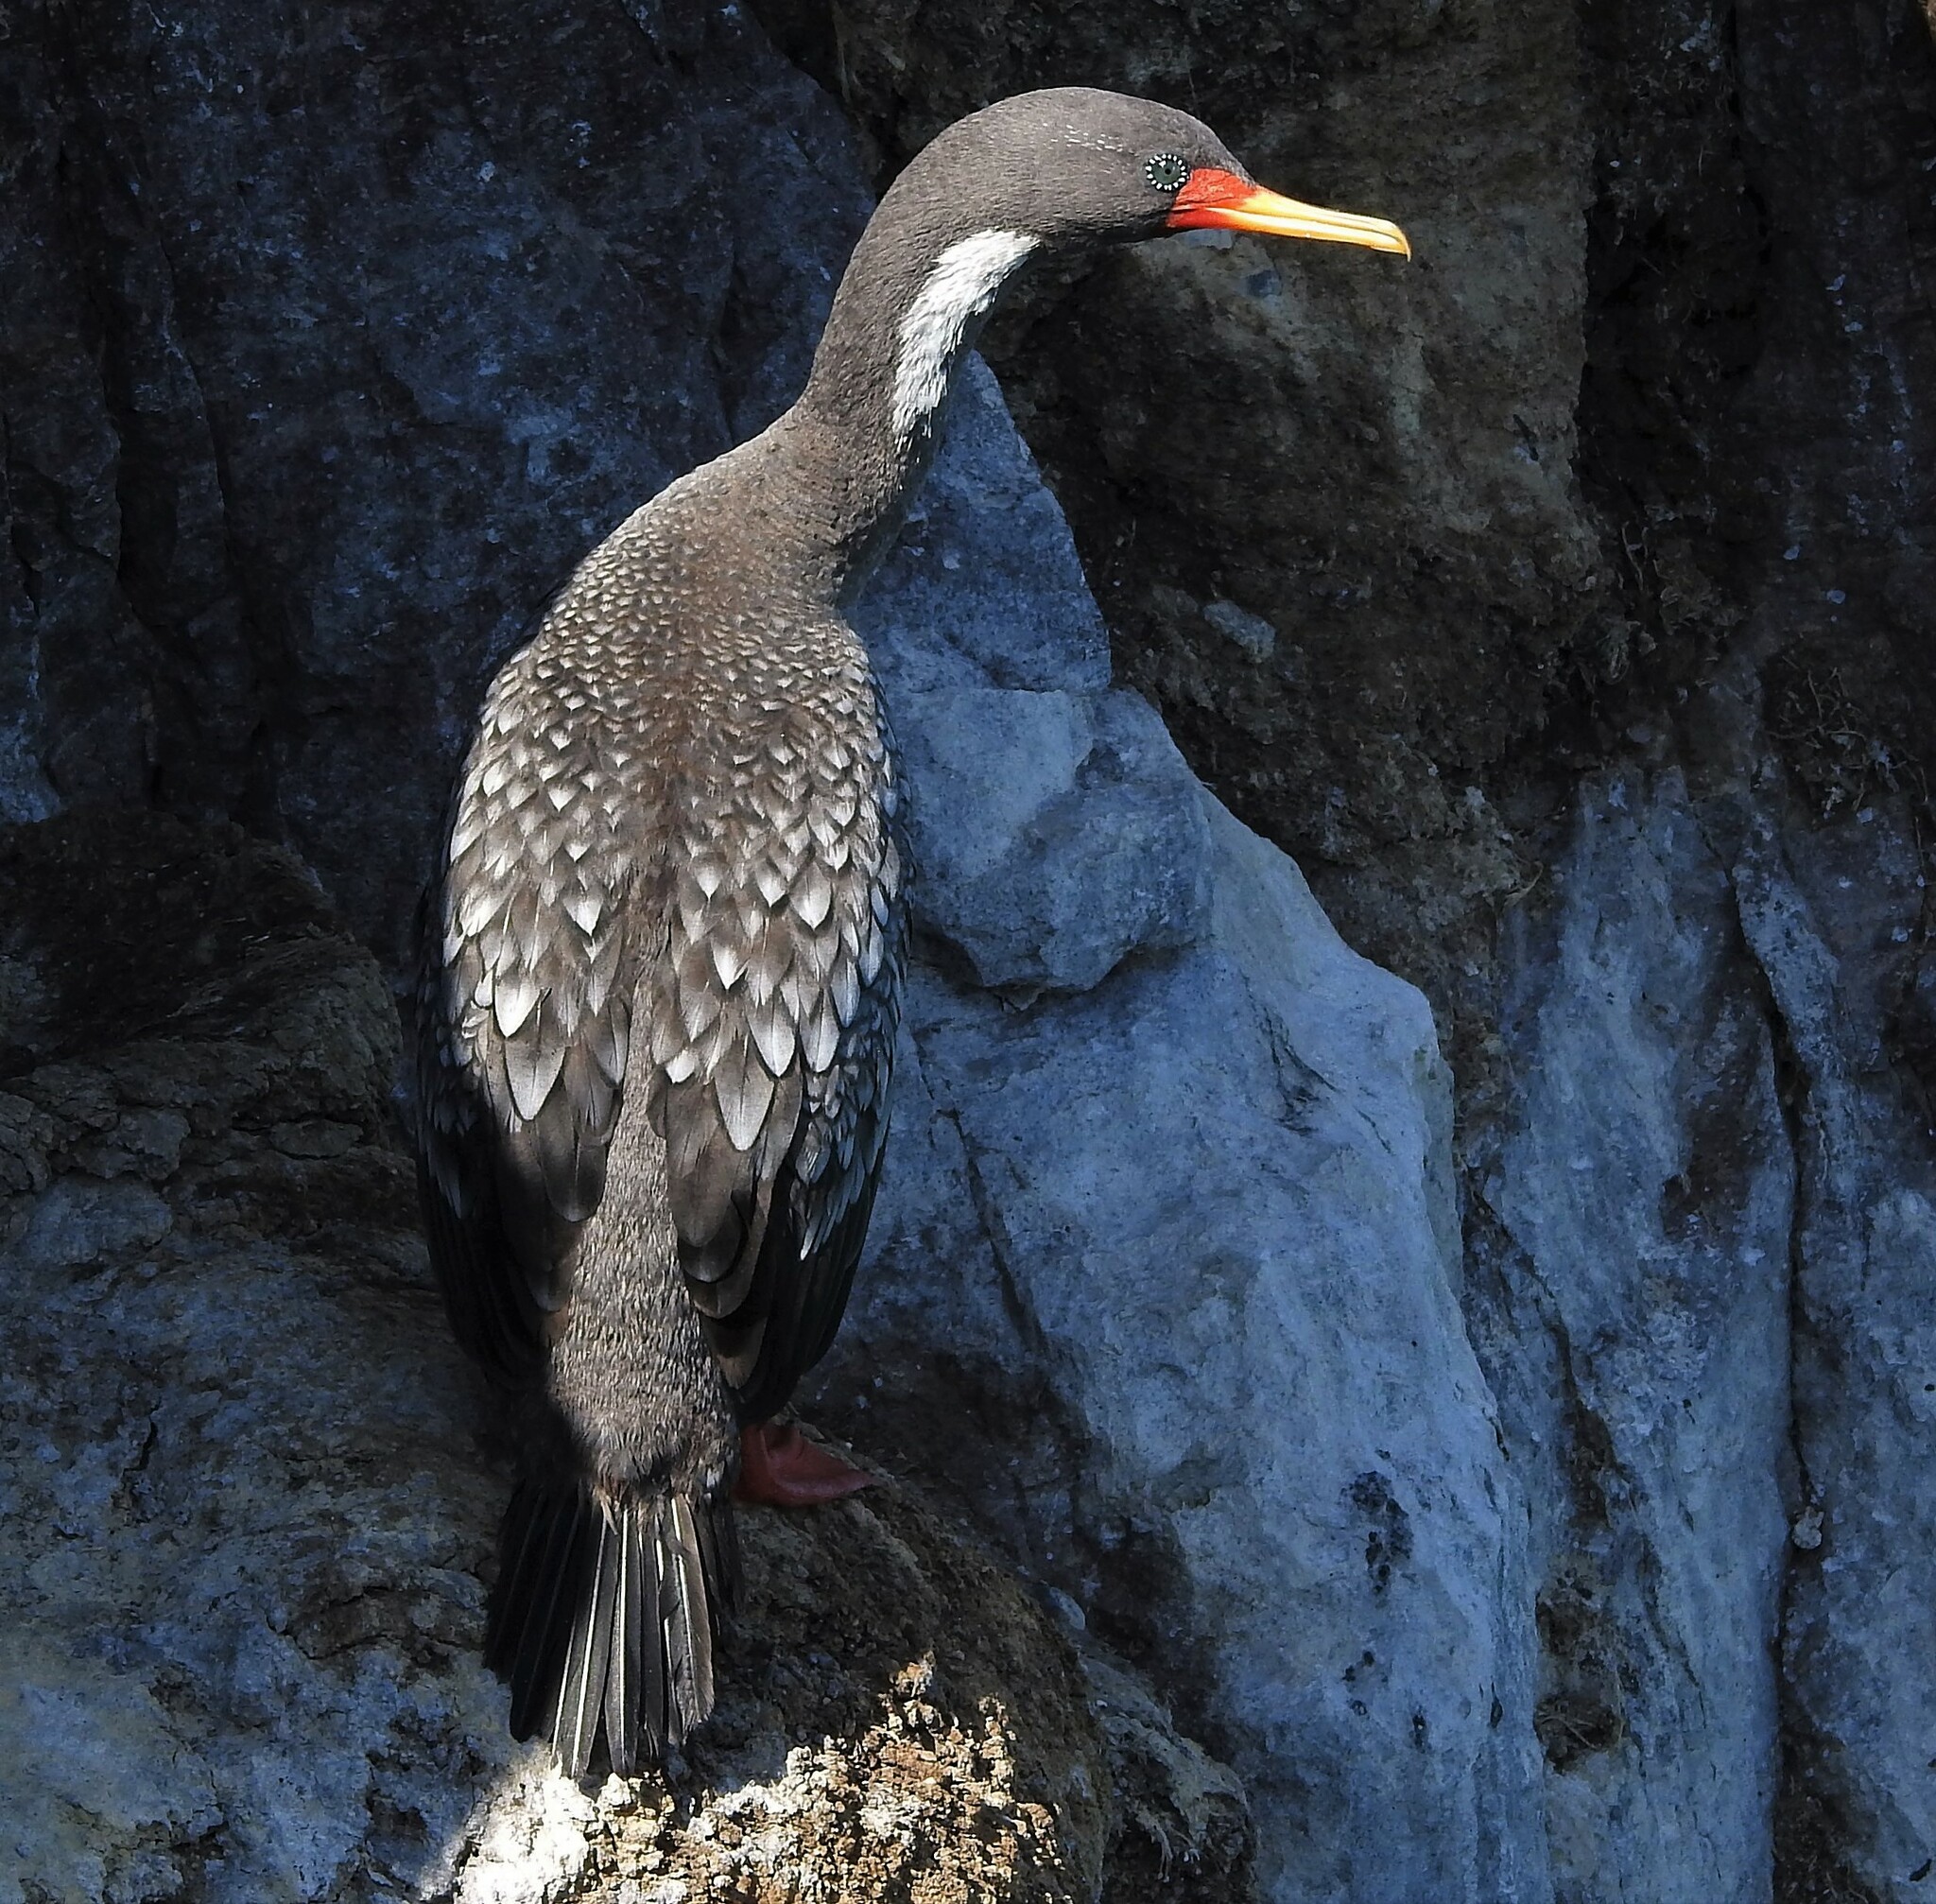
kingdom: Animalia
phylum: Chordata
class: Aves
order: Suliformes
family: Phalacrocoracidae
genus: Phalacrocorax
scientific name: Phalacrocorax gaimardi
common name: Red-legged cormorant
